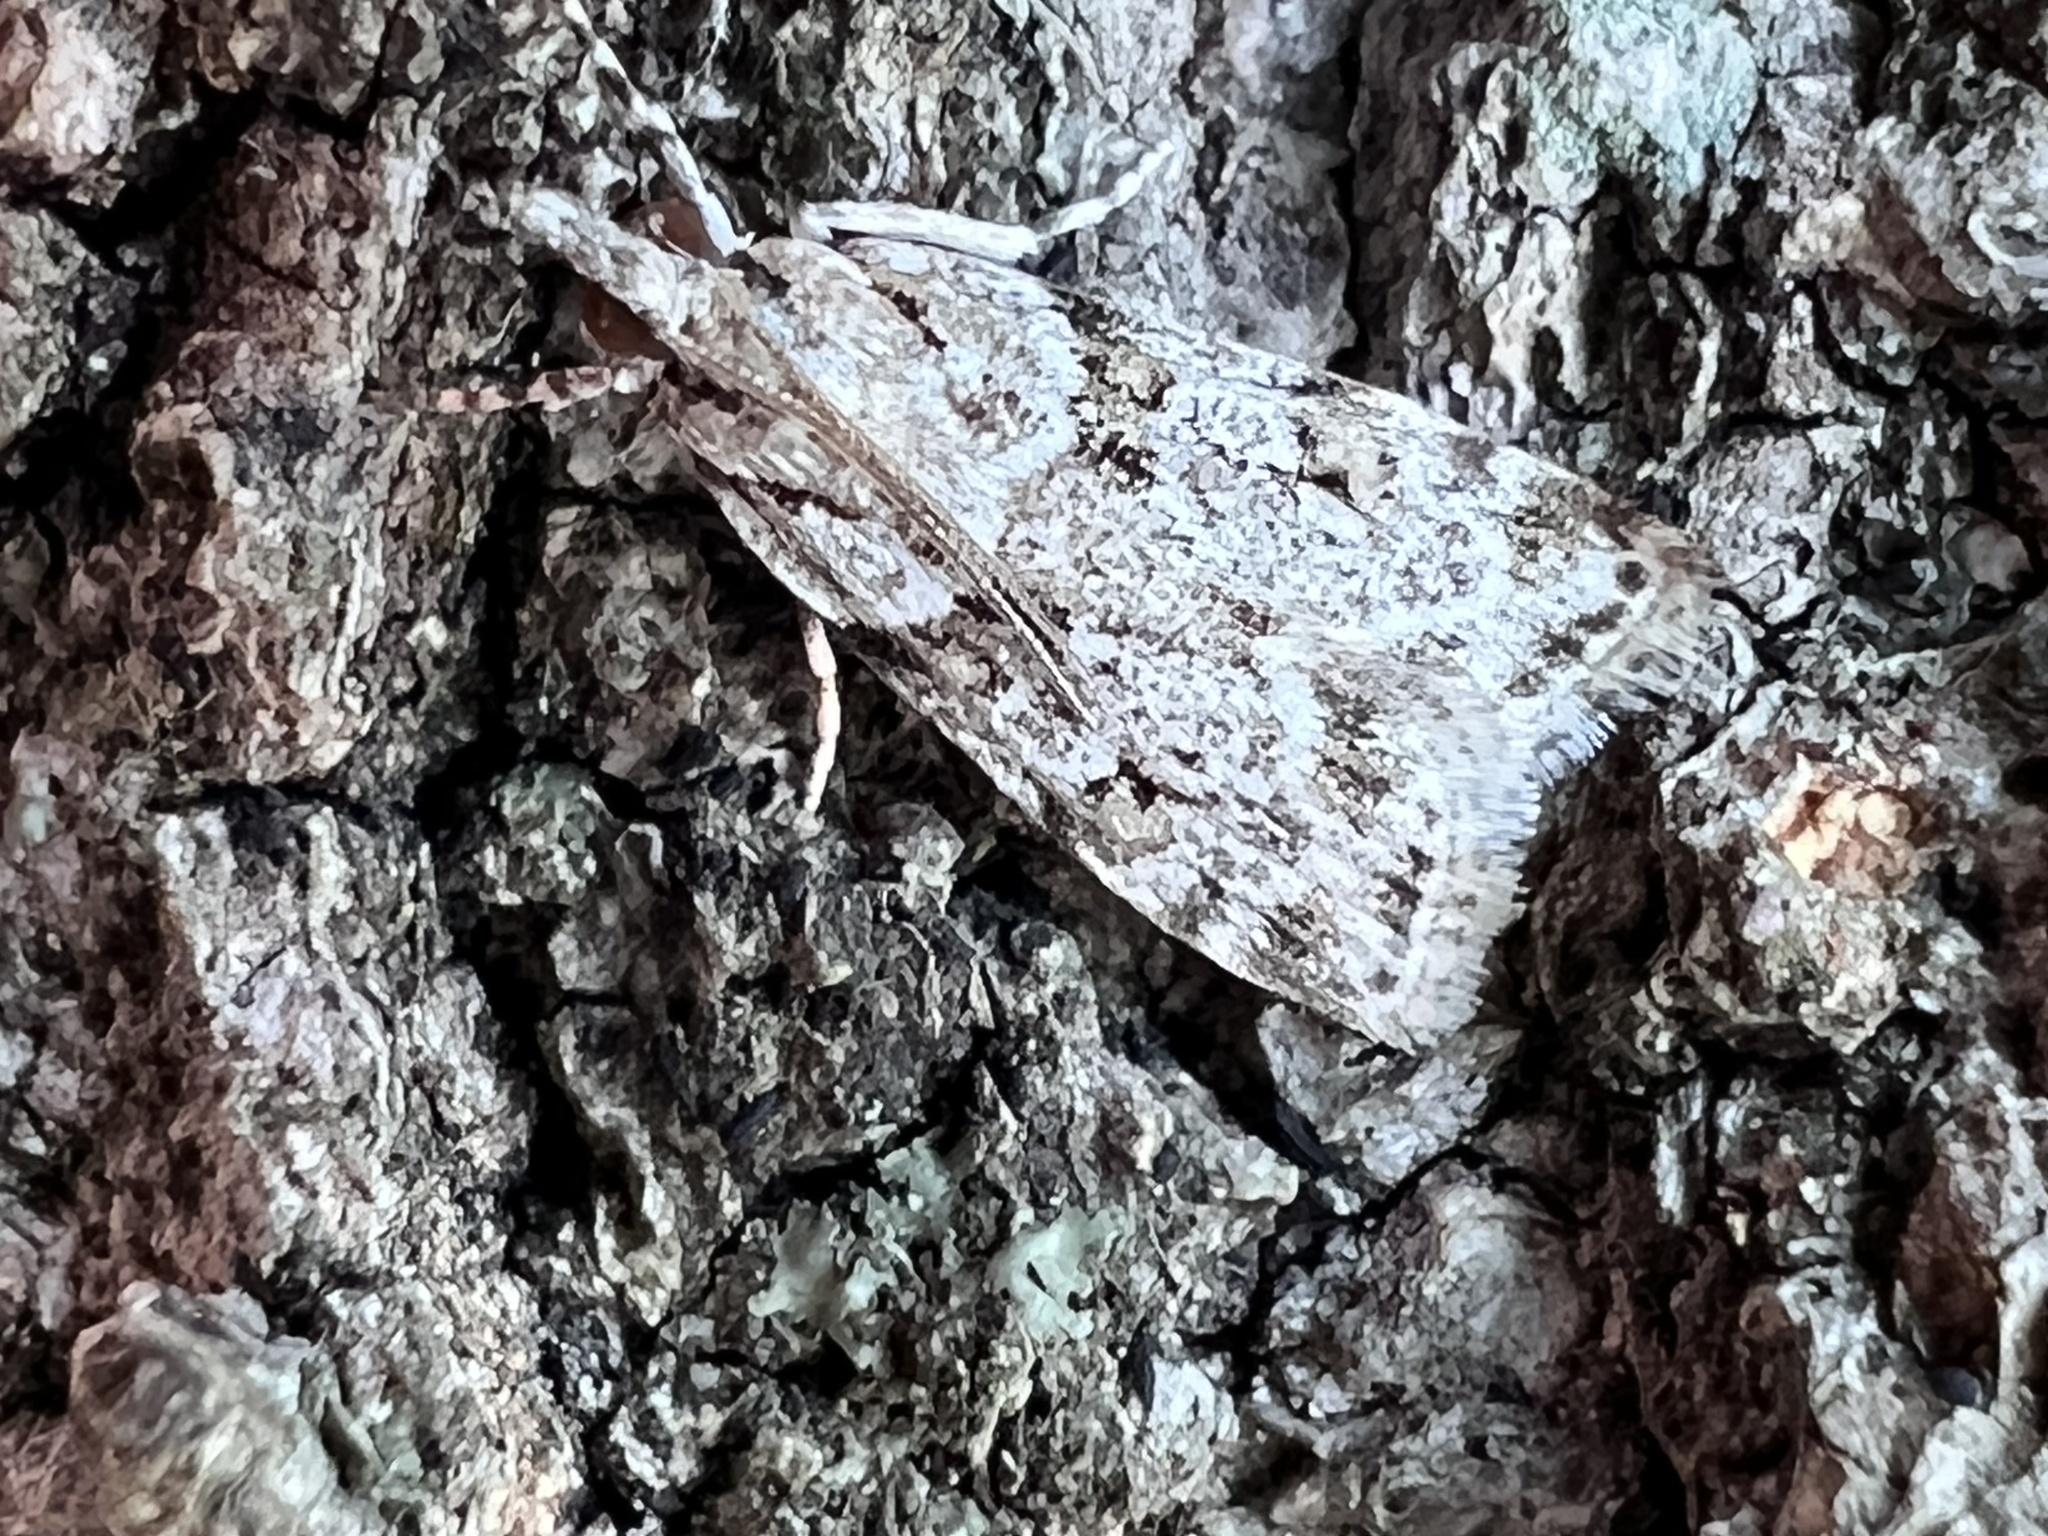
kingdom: Animalia
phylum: Arthropoda
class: Insecta
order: Lepidoptera
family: Crambidae
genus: Scoparia
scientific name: Scoparia biplagialis
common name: Double-striped scoparia moth
